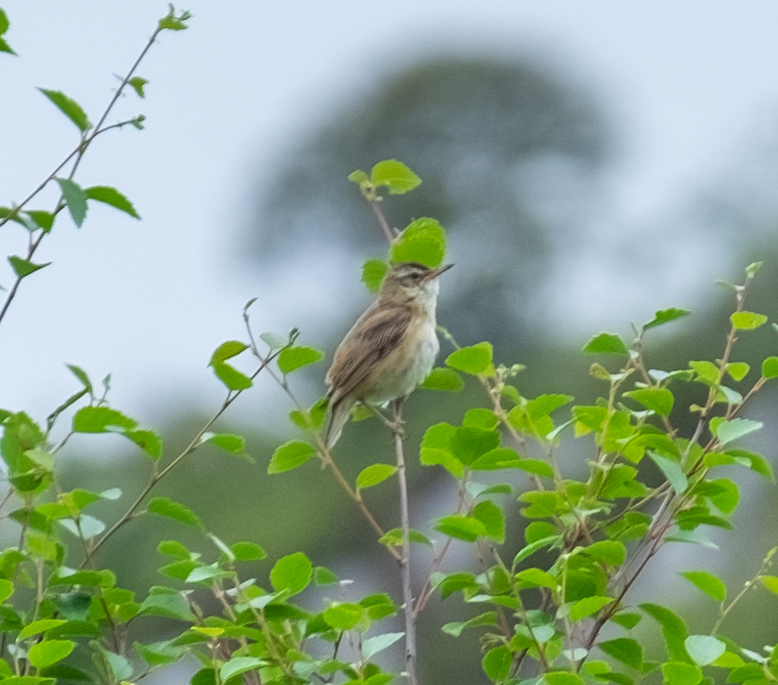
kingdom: Animalia
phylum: Chordata
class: Aves
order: Passeriformes
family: Acrocephalidae
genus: Acrocephalus
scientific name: Acrocephalus schoenobaenus
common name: Sedge warbler
